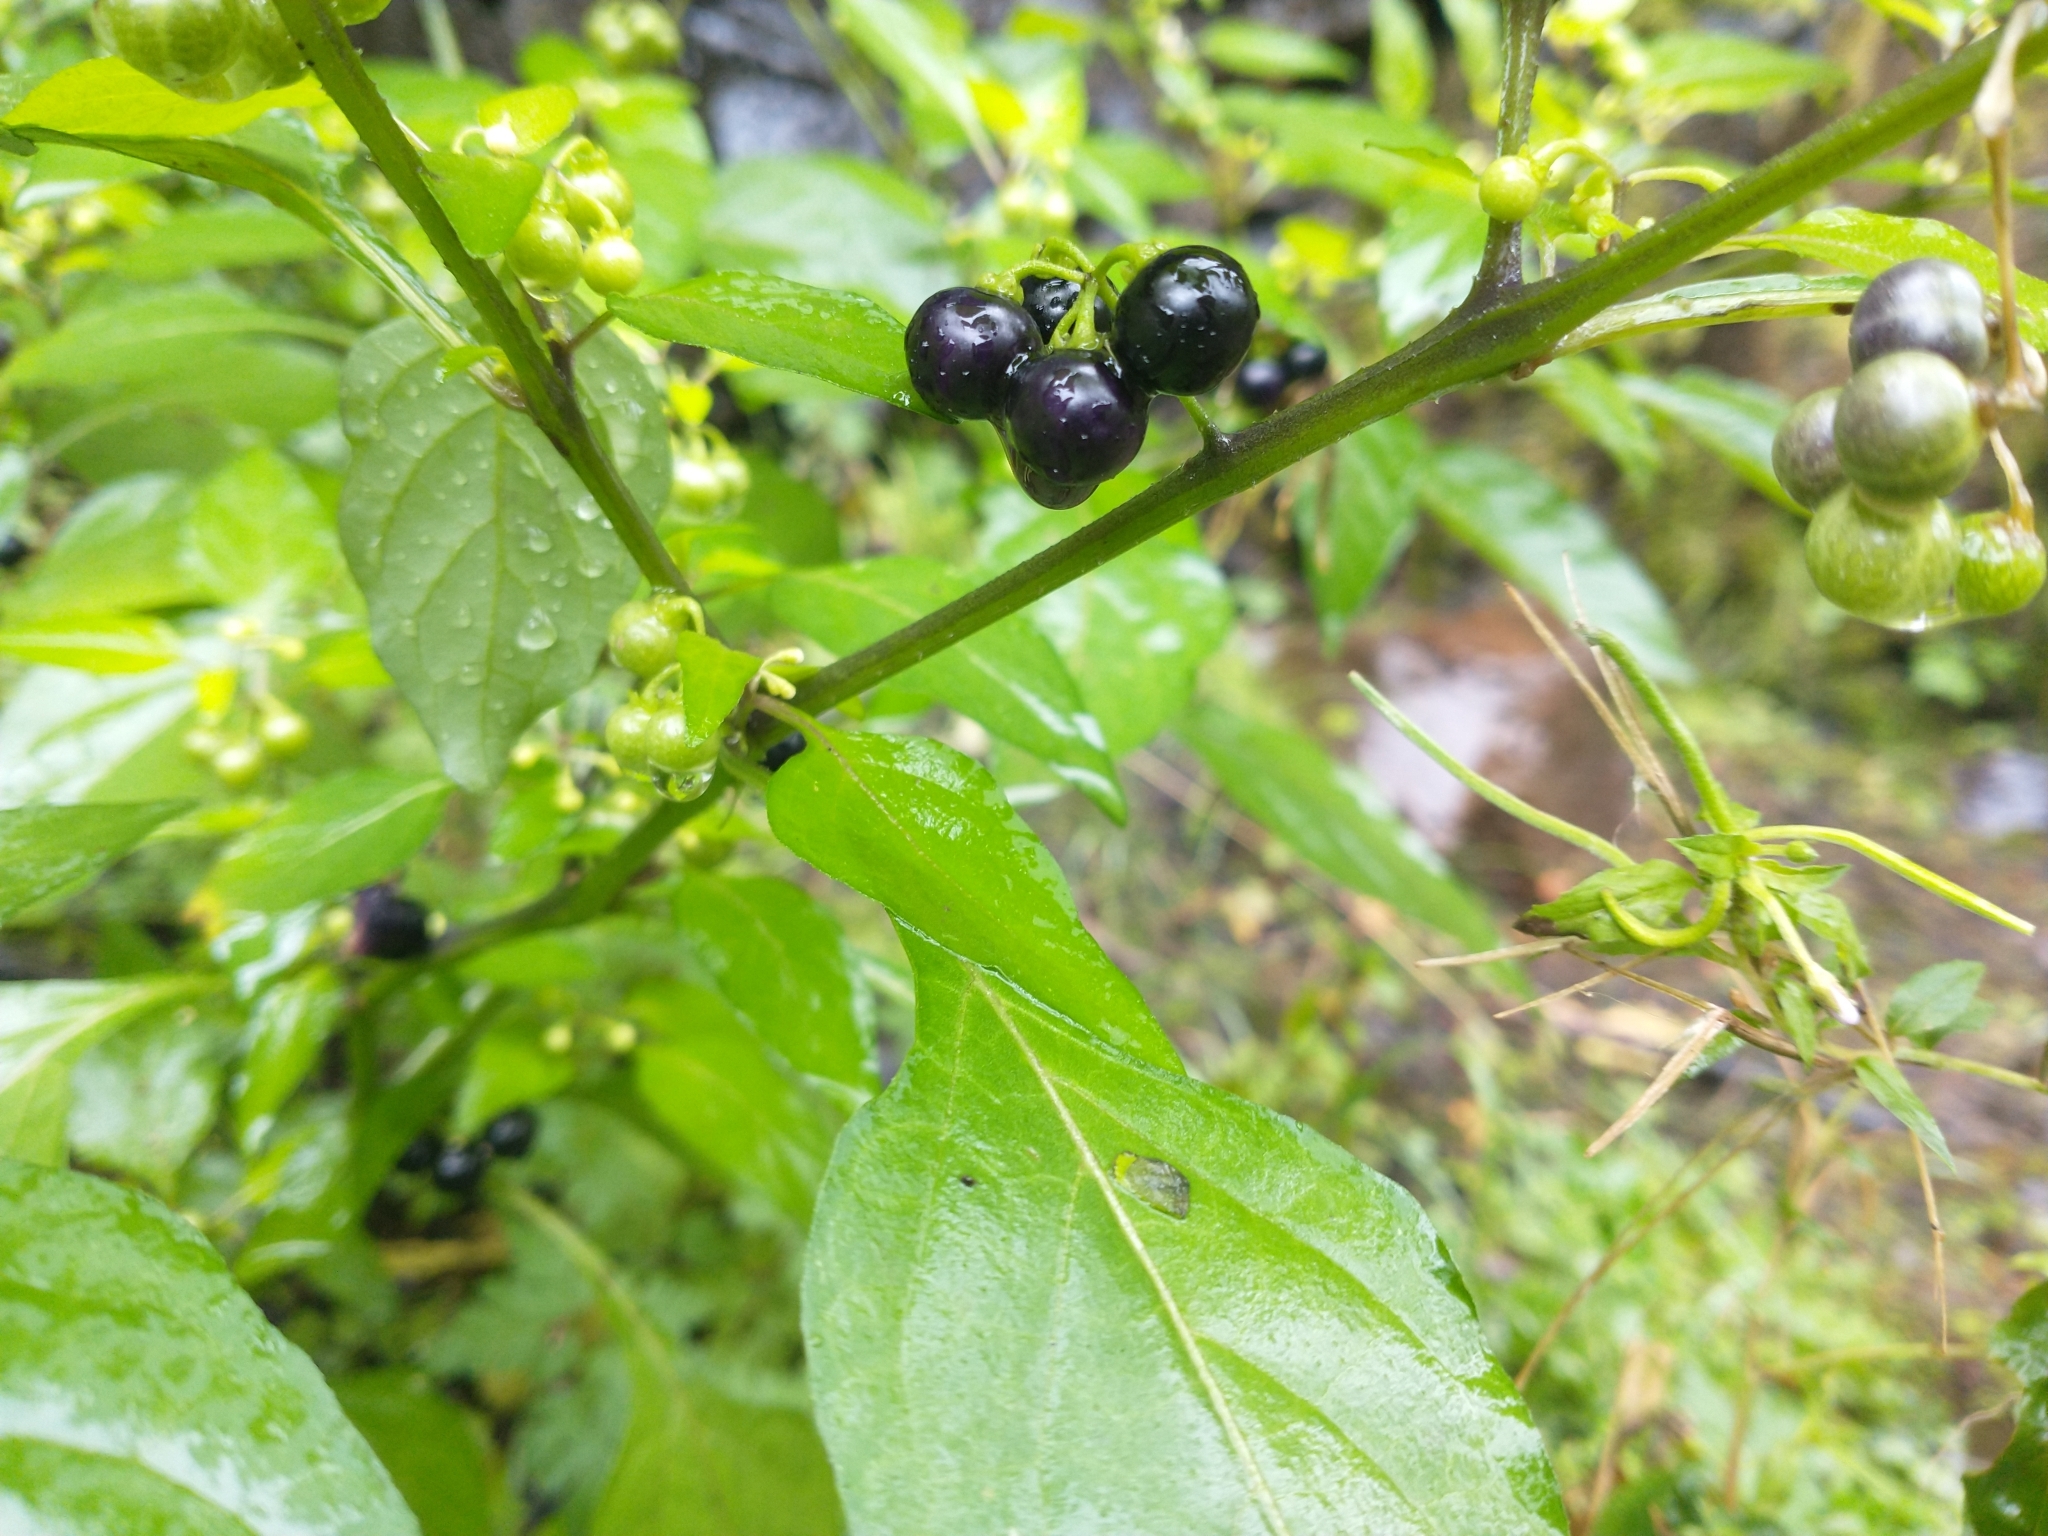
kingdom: Plantae
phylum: Tracheophyta
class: Magnoliopsida
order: Solanales
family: Solanaceae
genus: Solanum
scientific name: Solanum americanum
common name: American black nightshade
